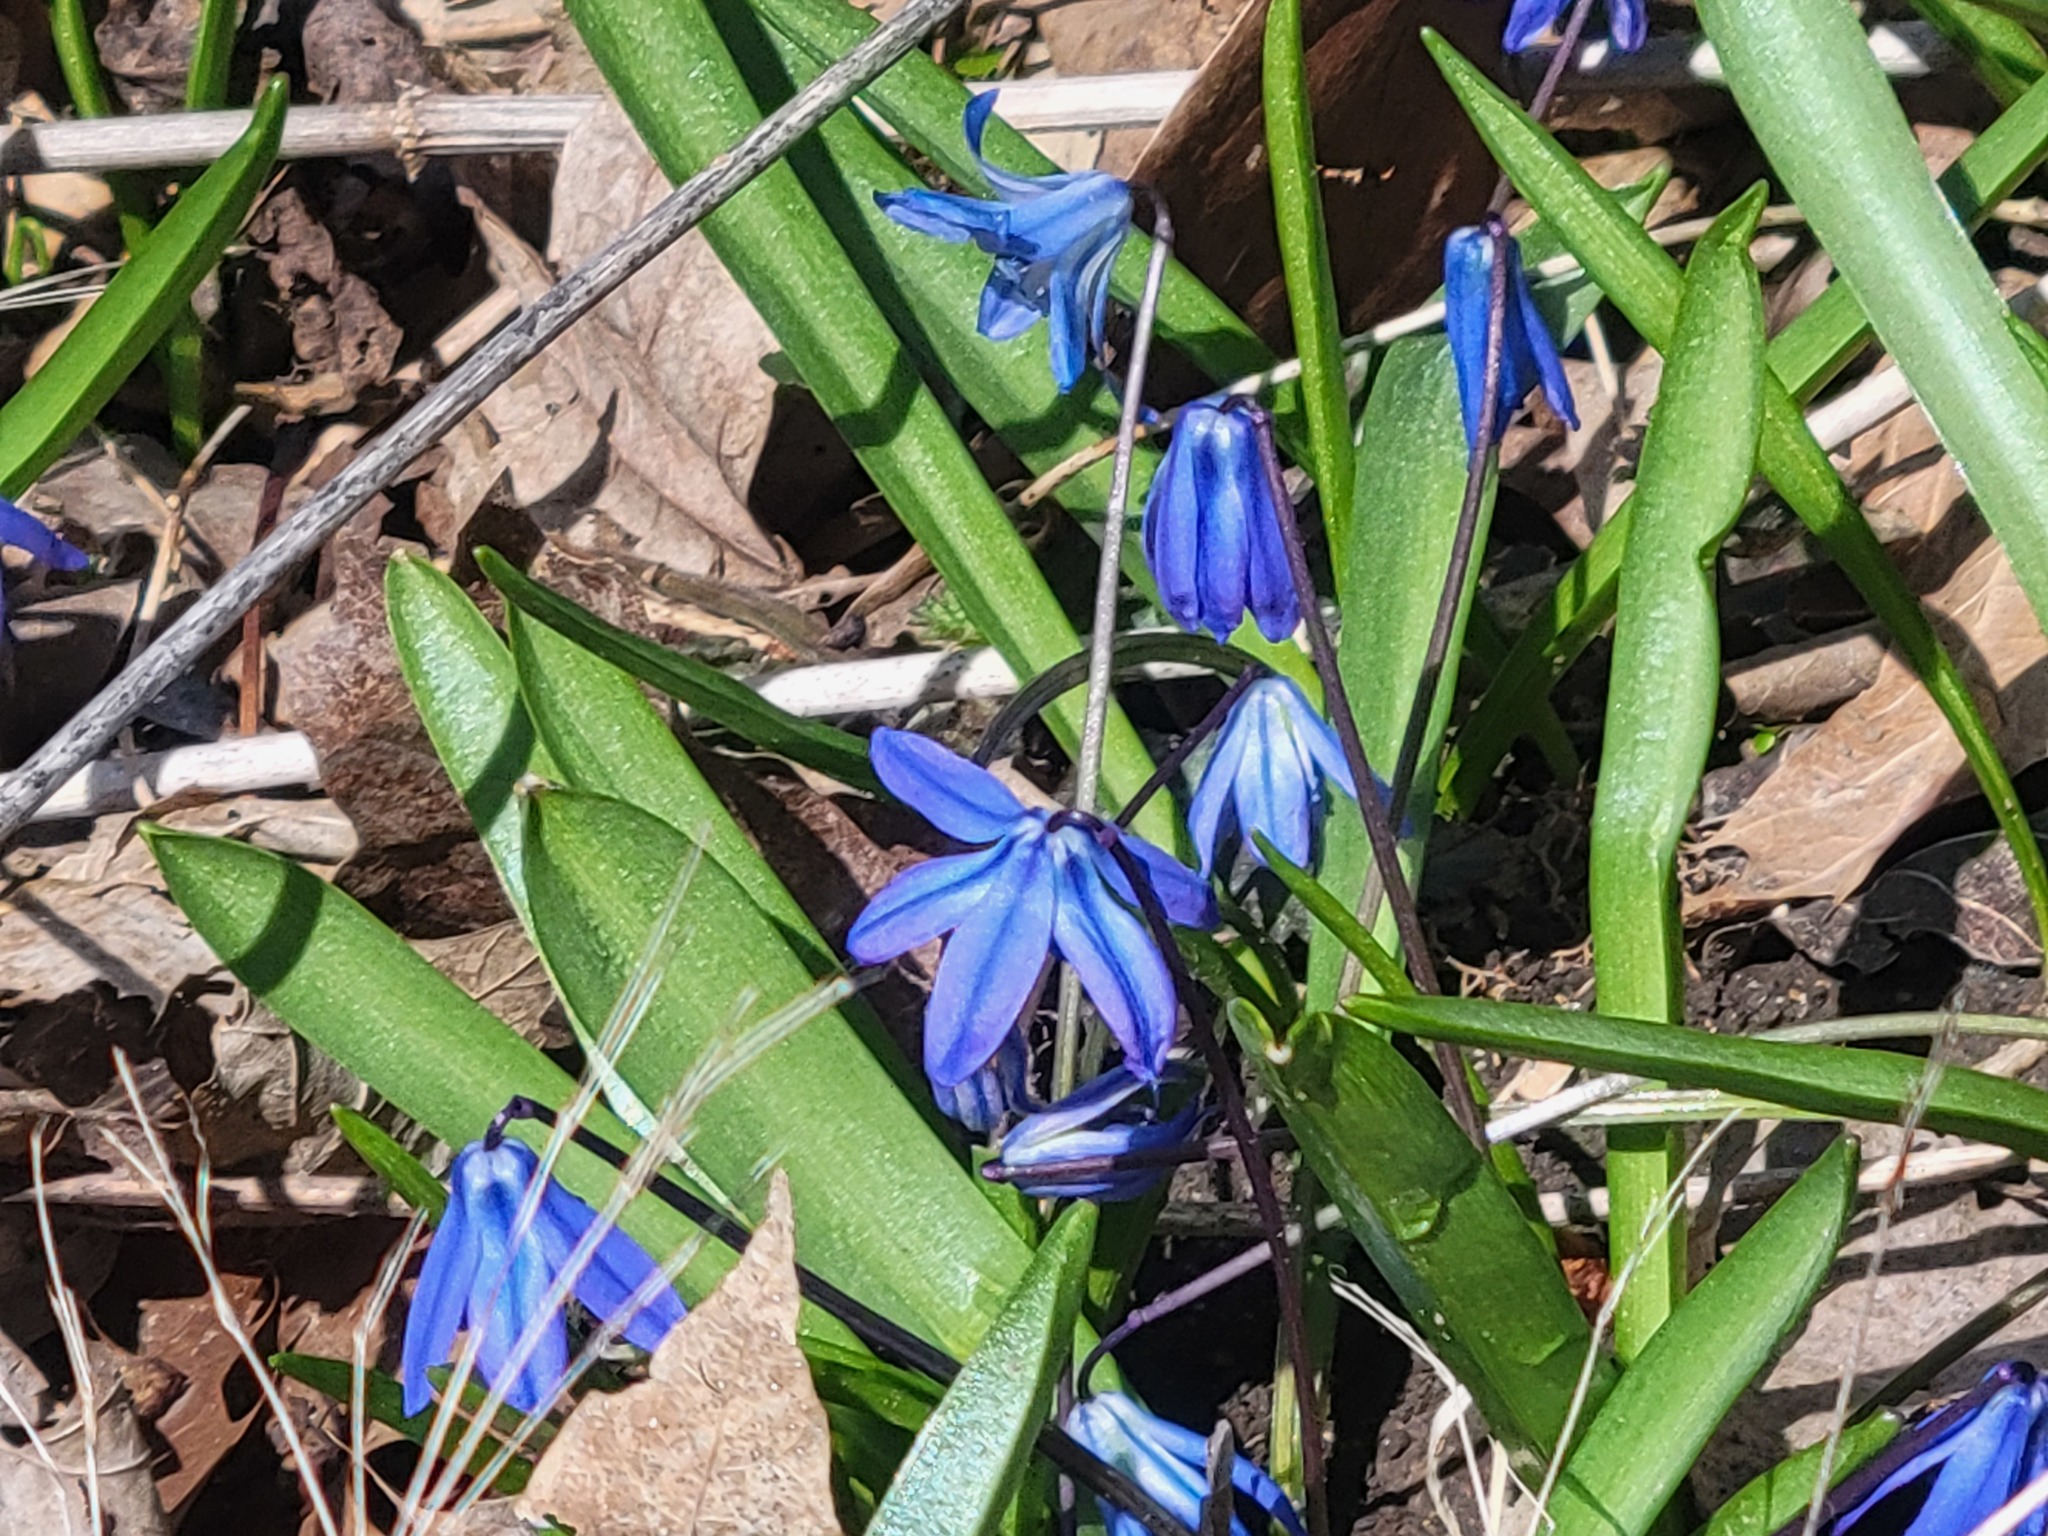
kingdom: Plantae
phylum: Tracheophyta
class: Liliopsida
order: Asparagales
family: Asparagaceae
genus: Scilla
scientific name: Scilla siberica
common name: Siberian squill
